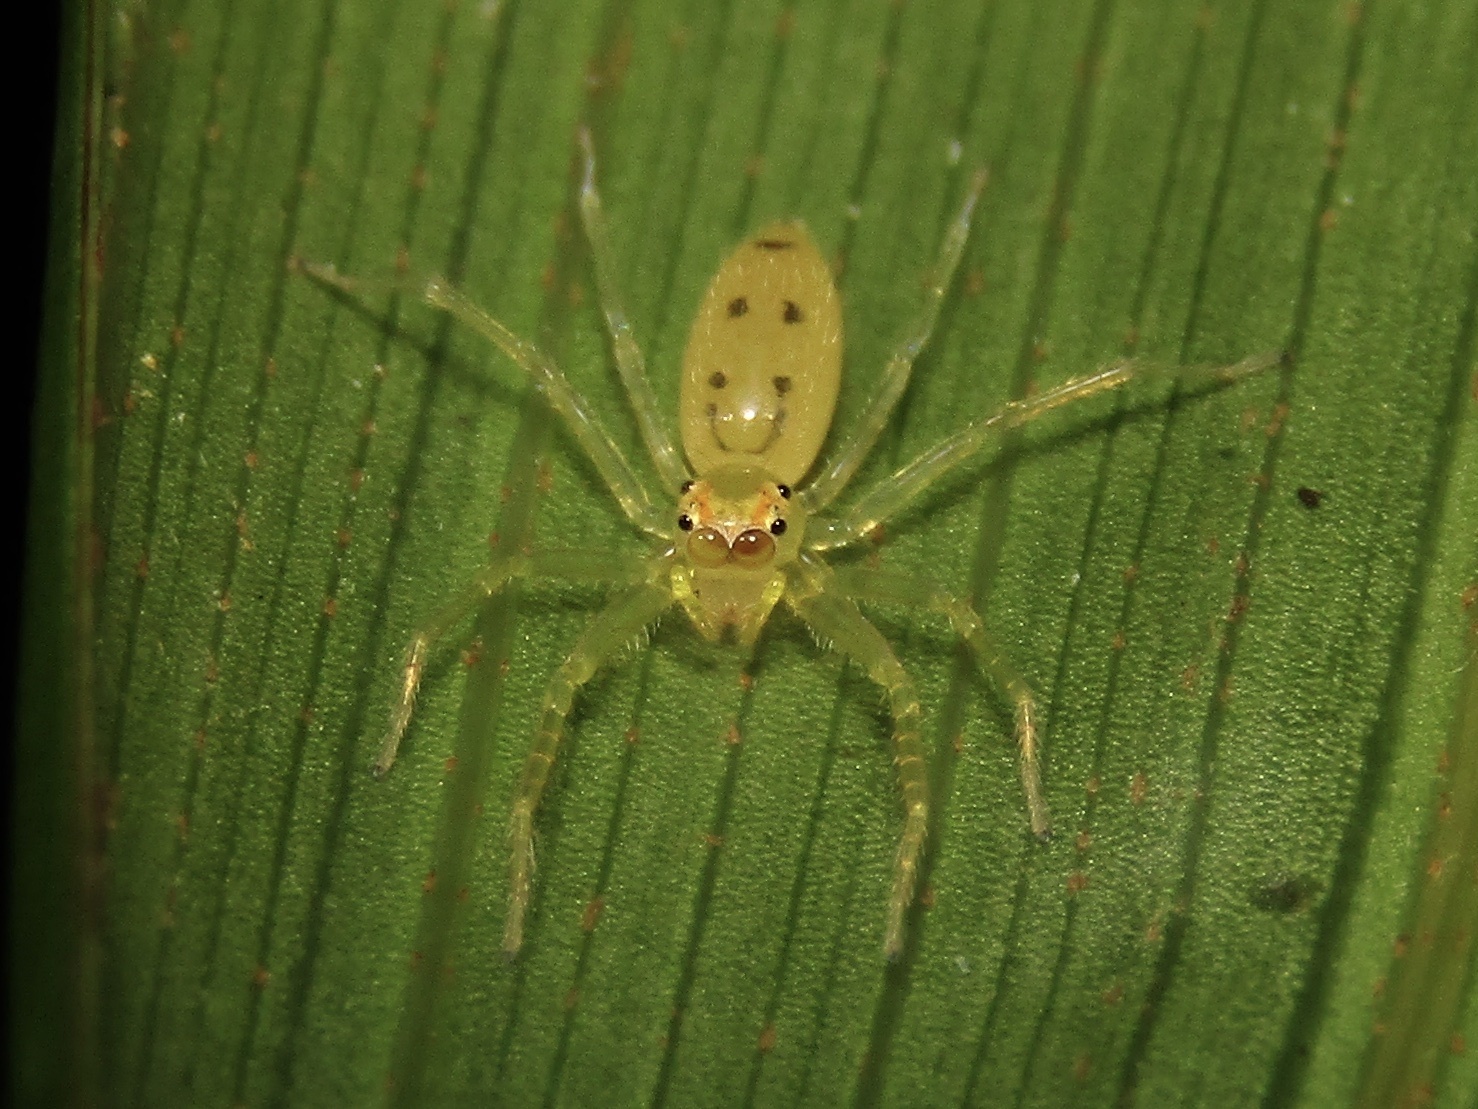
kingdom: Animalia
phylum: Arthropoda
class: Arachnida
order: Araneae
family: Salticidae
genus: Astilodes
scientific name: Astilodes mariae
